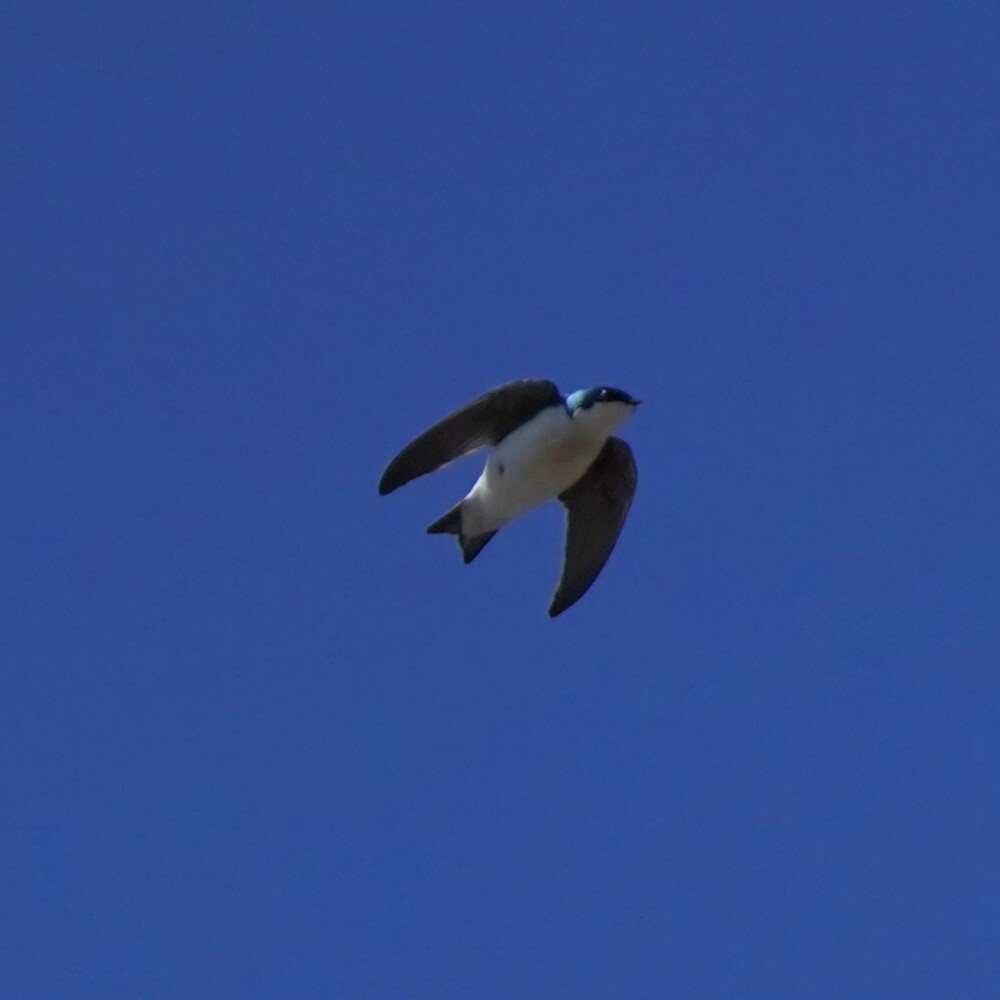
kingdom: Animalia
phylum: Chordata
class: Aves
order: Passeriformes
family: Hirundinidae
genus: Tachycineta
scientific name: Tachycineta bicolor
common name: Tree swallow
